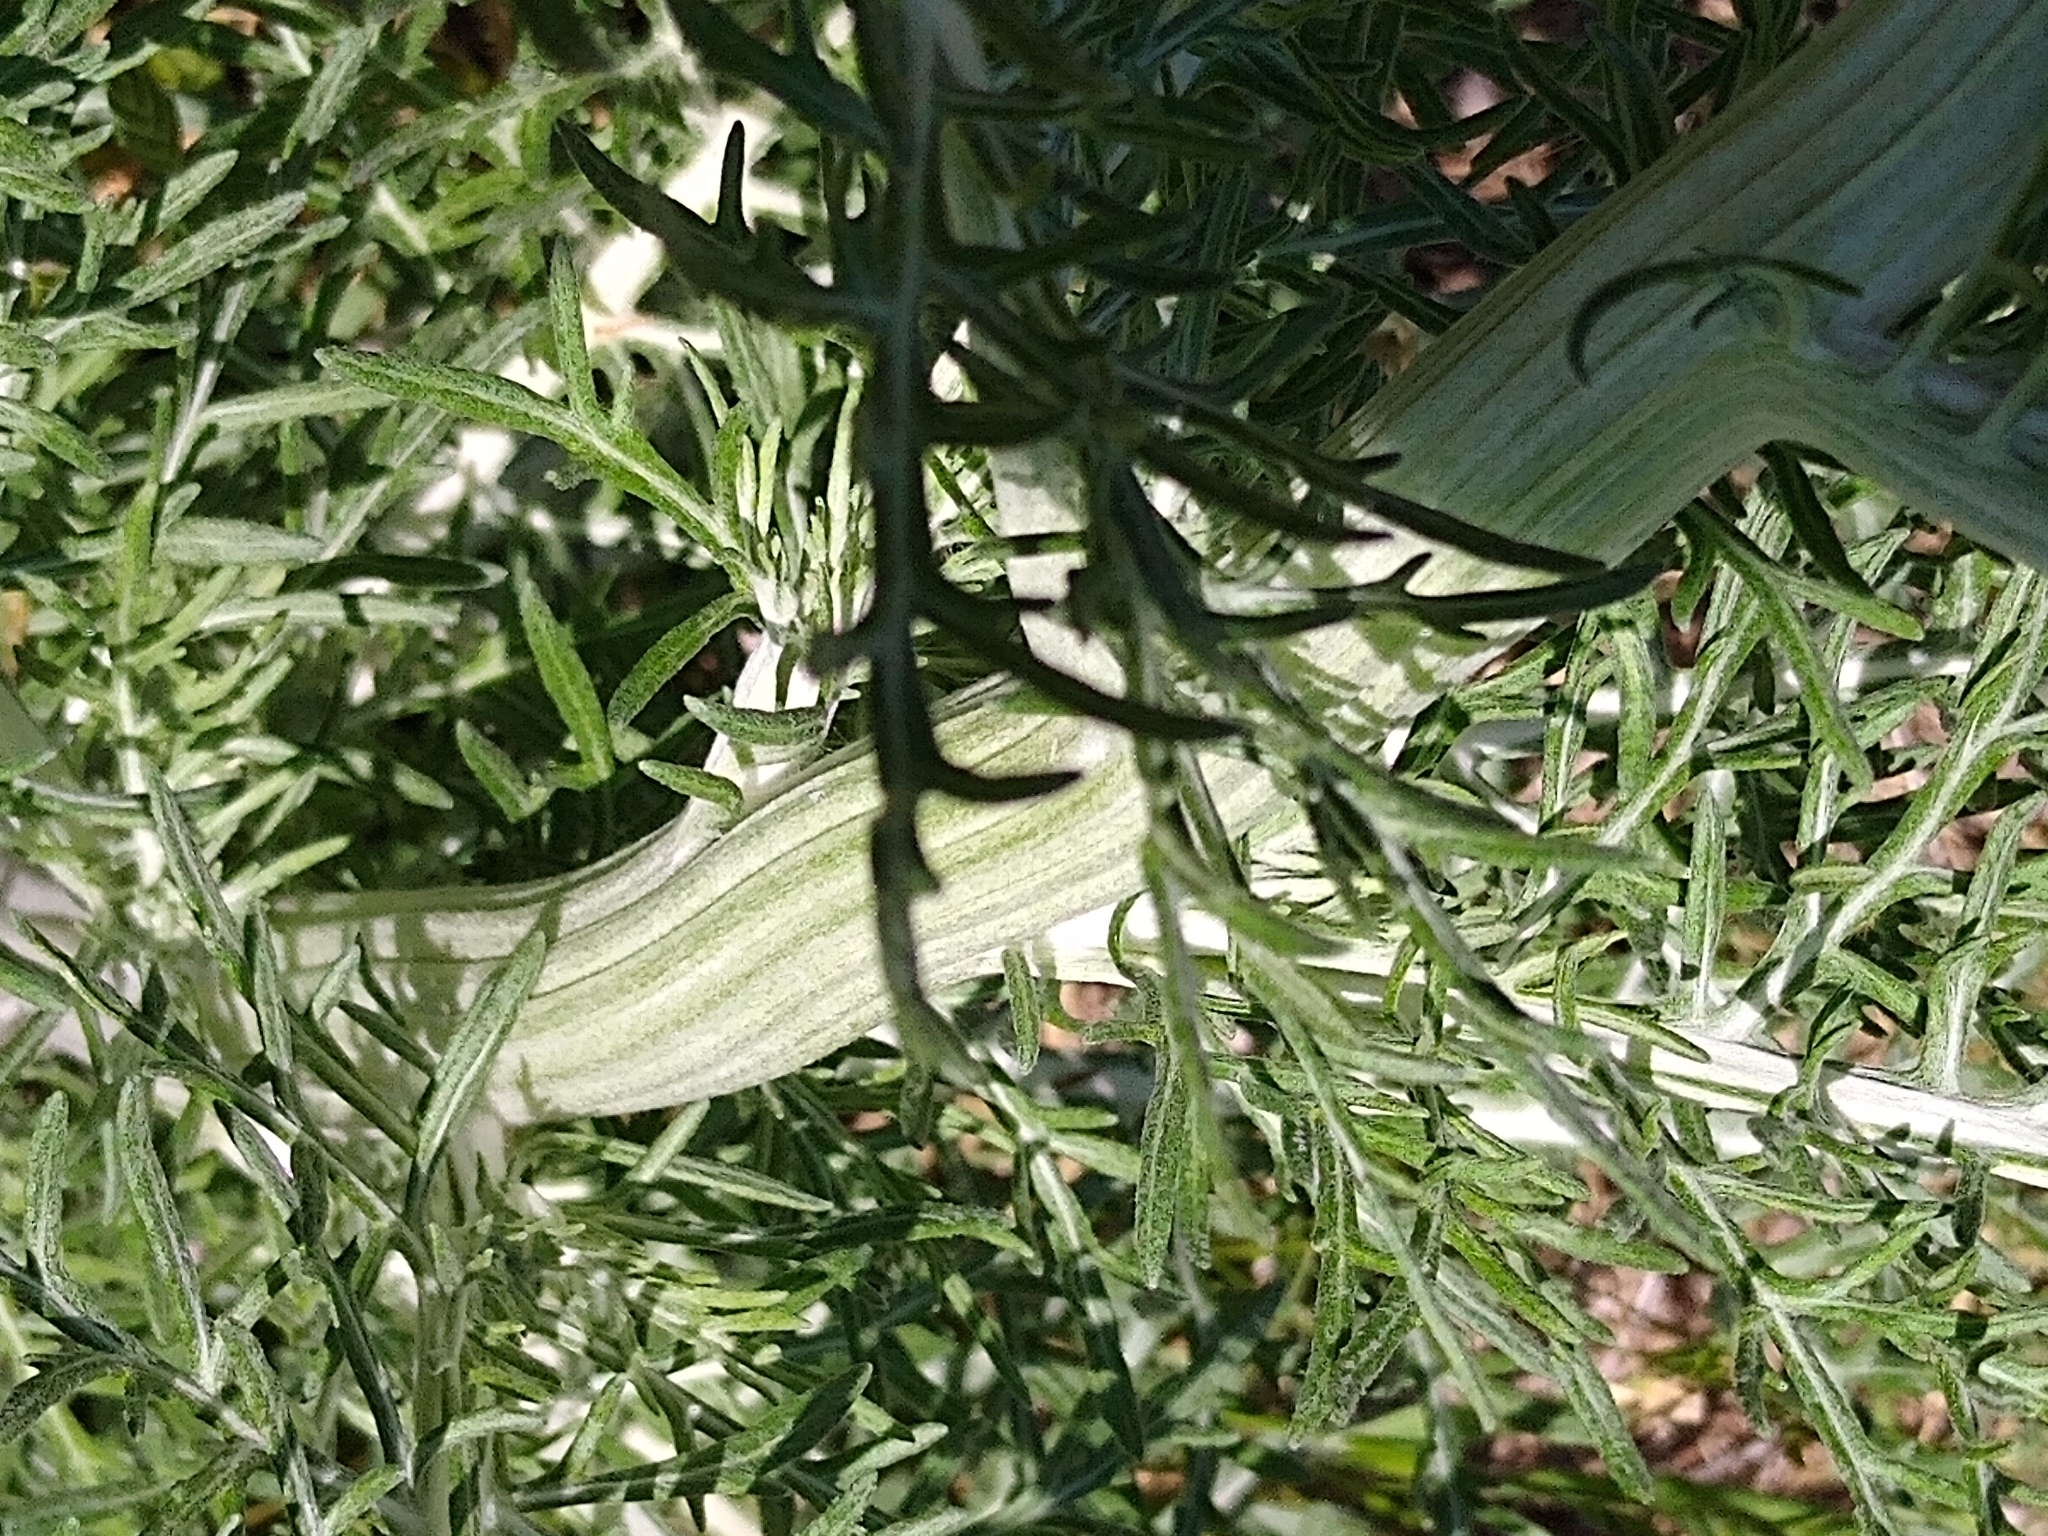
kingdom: Plantae
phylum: Tracheophyta
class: Magnoliopsida
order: Asterales
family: Asteraceae
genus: Hymenopappus
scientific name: Hymenopappus scabiosaeus
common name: Carolina woollywhite
